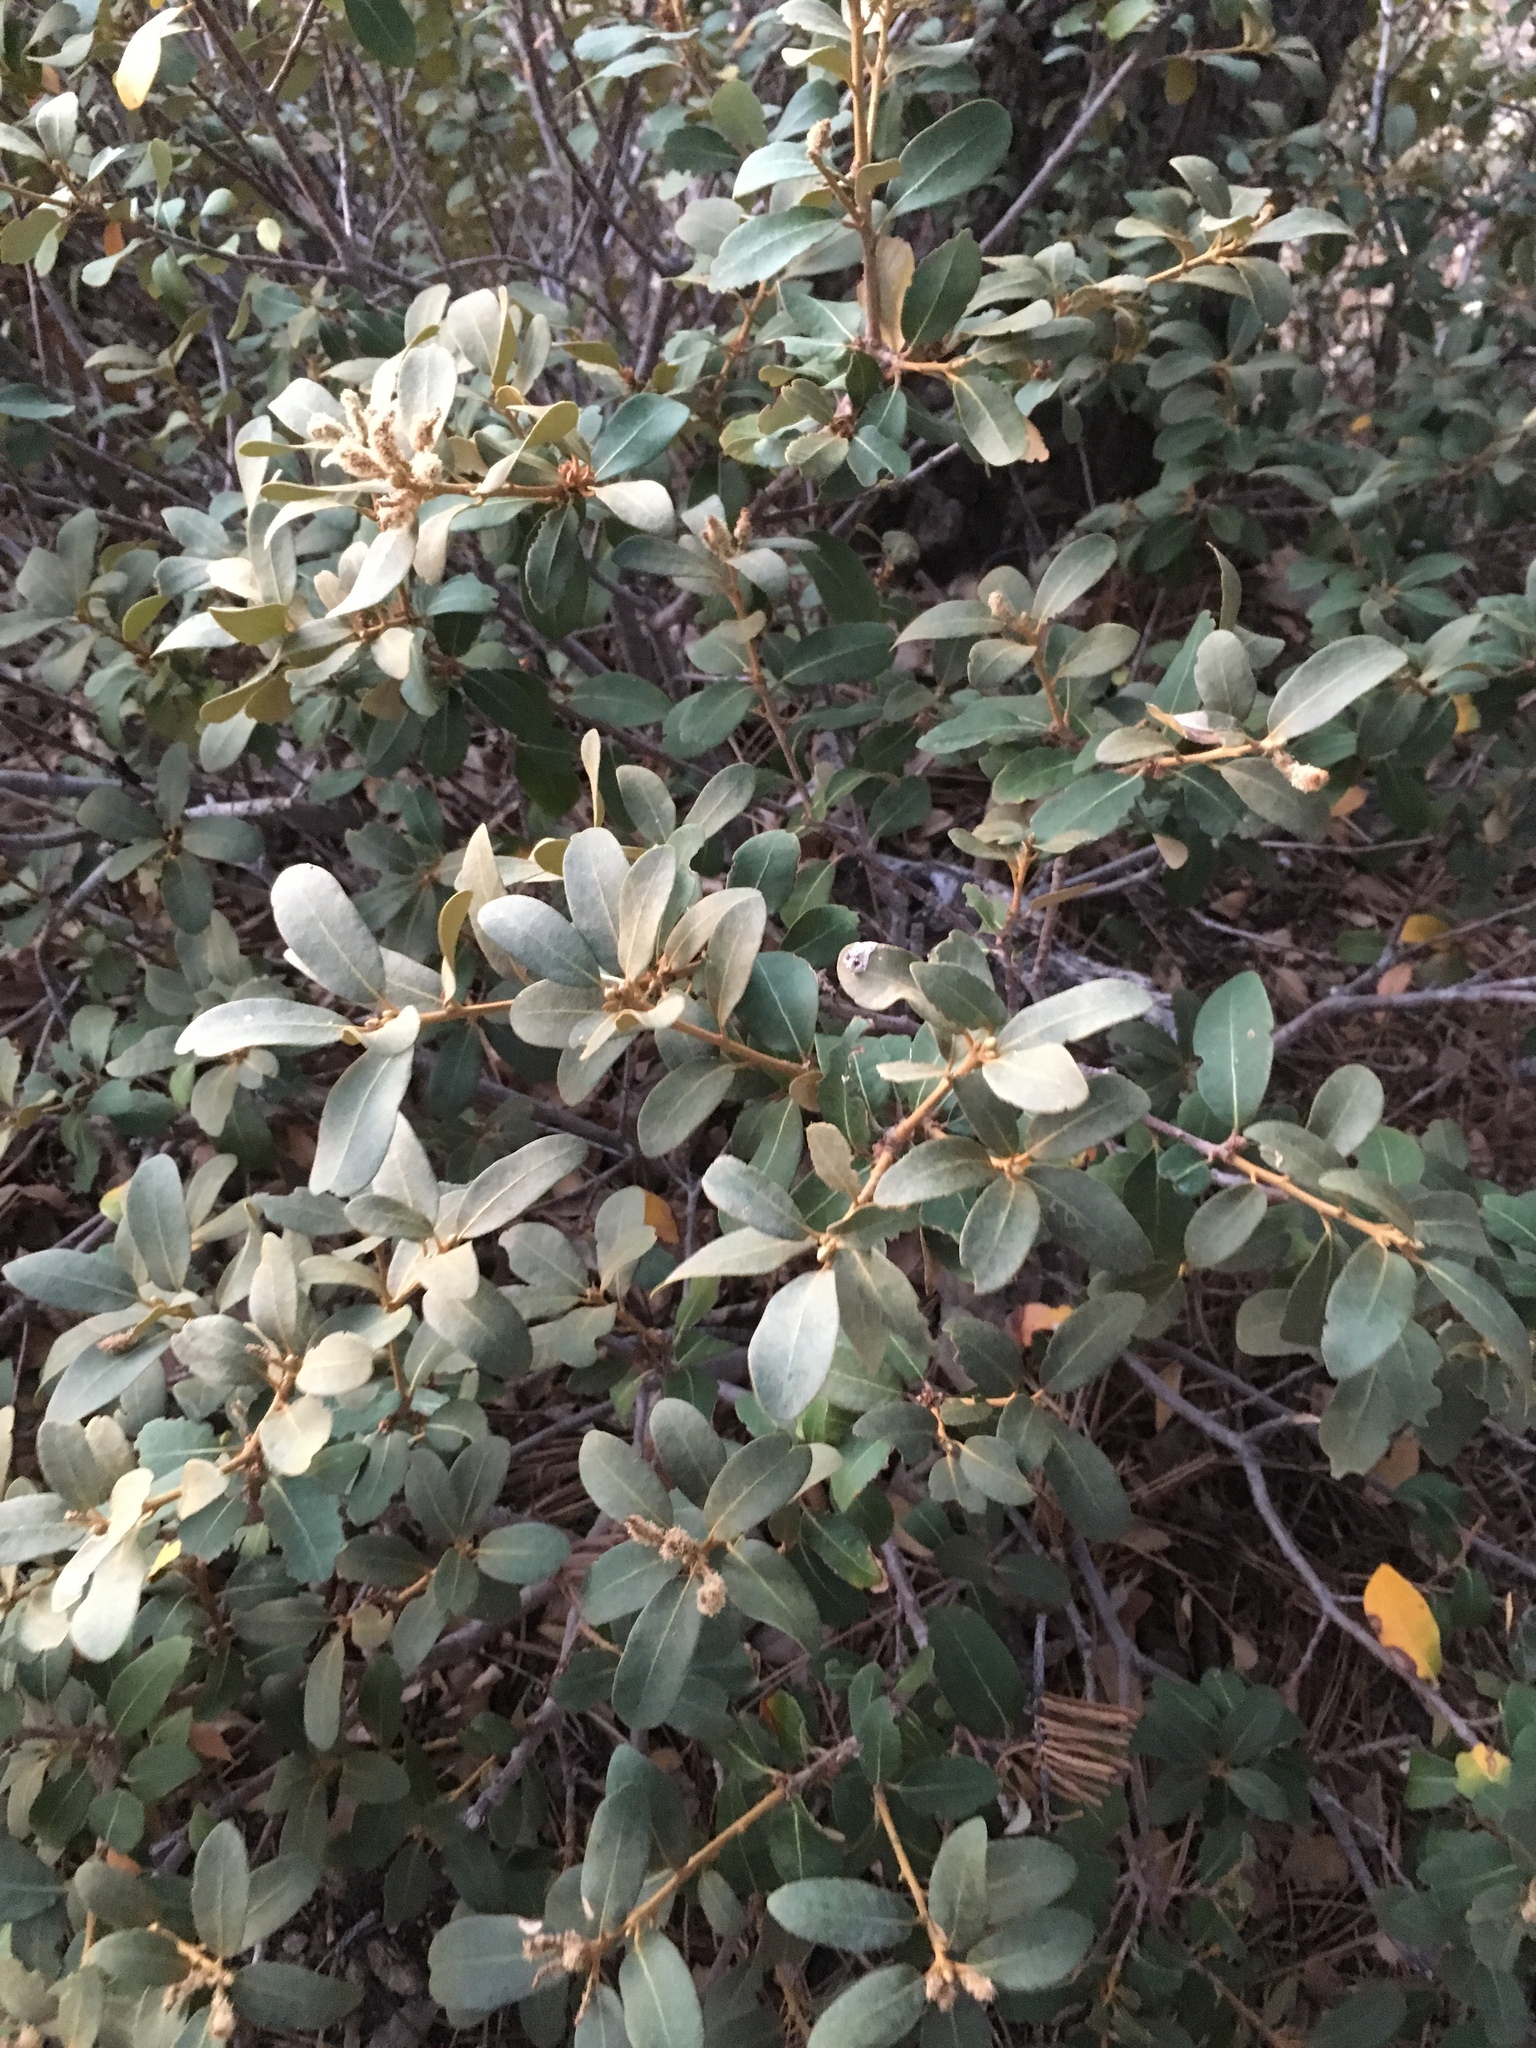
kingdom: Plantae
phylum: Tracheophyta
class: Magnoliopsida
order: Fagales
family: Fagaceae
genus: Chrysolepis
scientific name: Chrysolepis sempervirens
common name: Bush chinquapin
